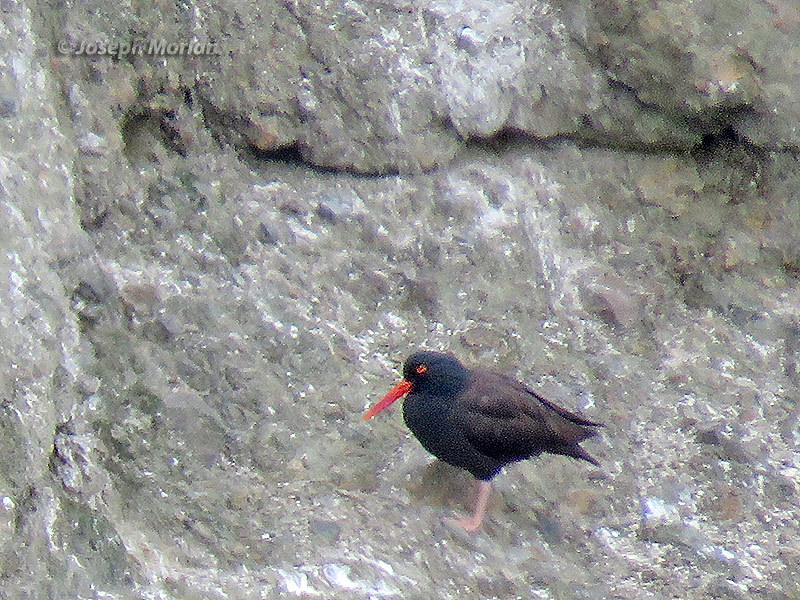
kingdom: Animalia
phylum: Chordata
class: Aves
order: Charadriiformes
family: Haematopodidae
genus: Haematopus
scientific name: Haematopus bachmani
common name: Black oystercatcher
